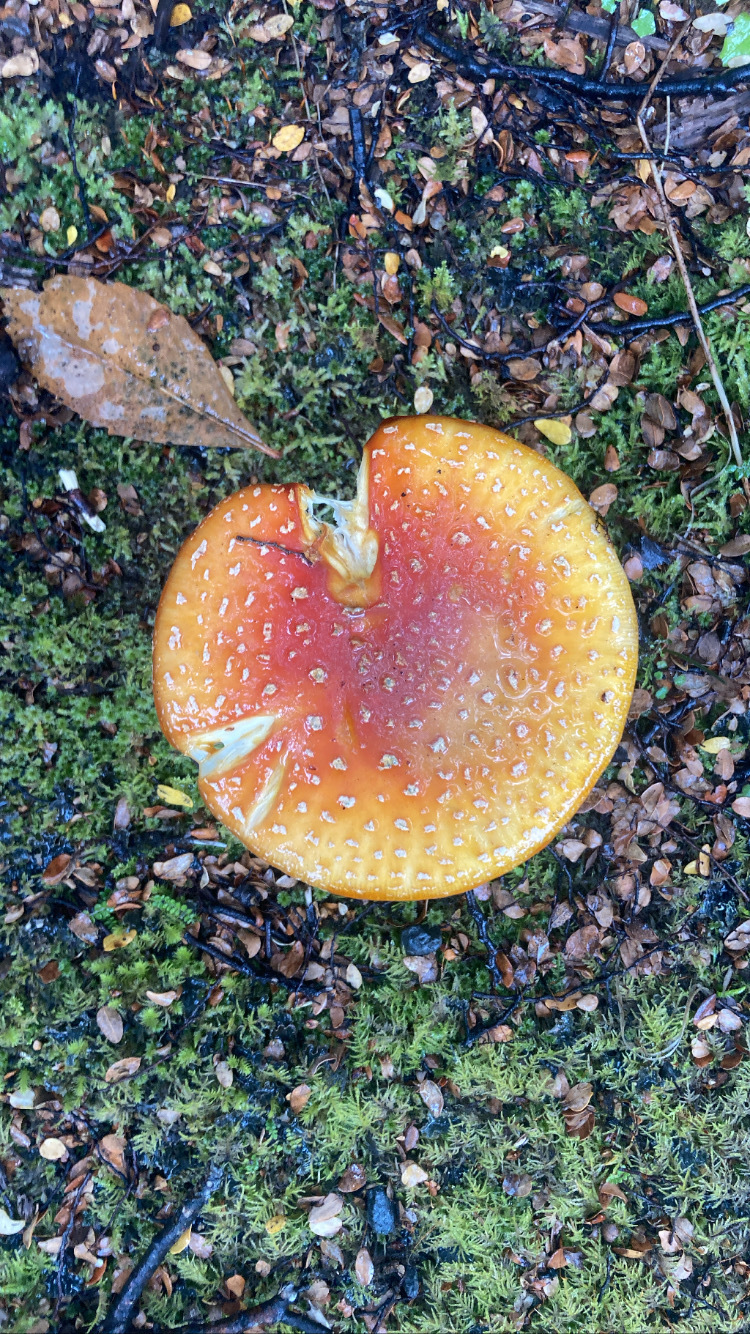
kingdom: Fungi
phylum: Basidiomycota
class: Agaricomycetes
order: Agaricales
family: Amanitaceae
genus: Amanita
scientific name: Amanita muscaria
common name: Fly agaric
